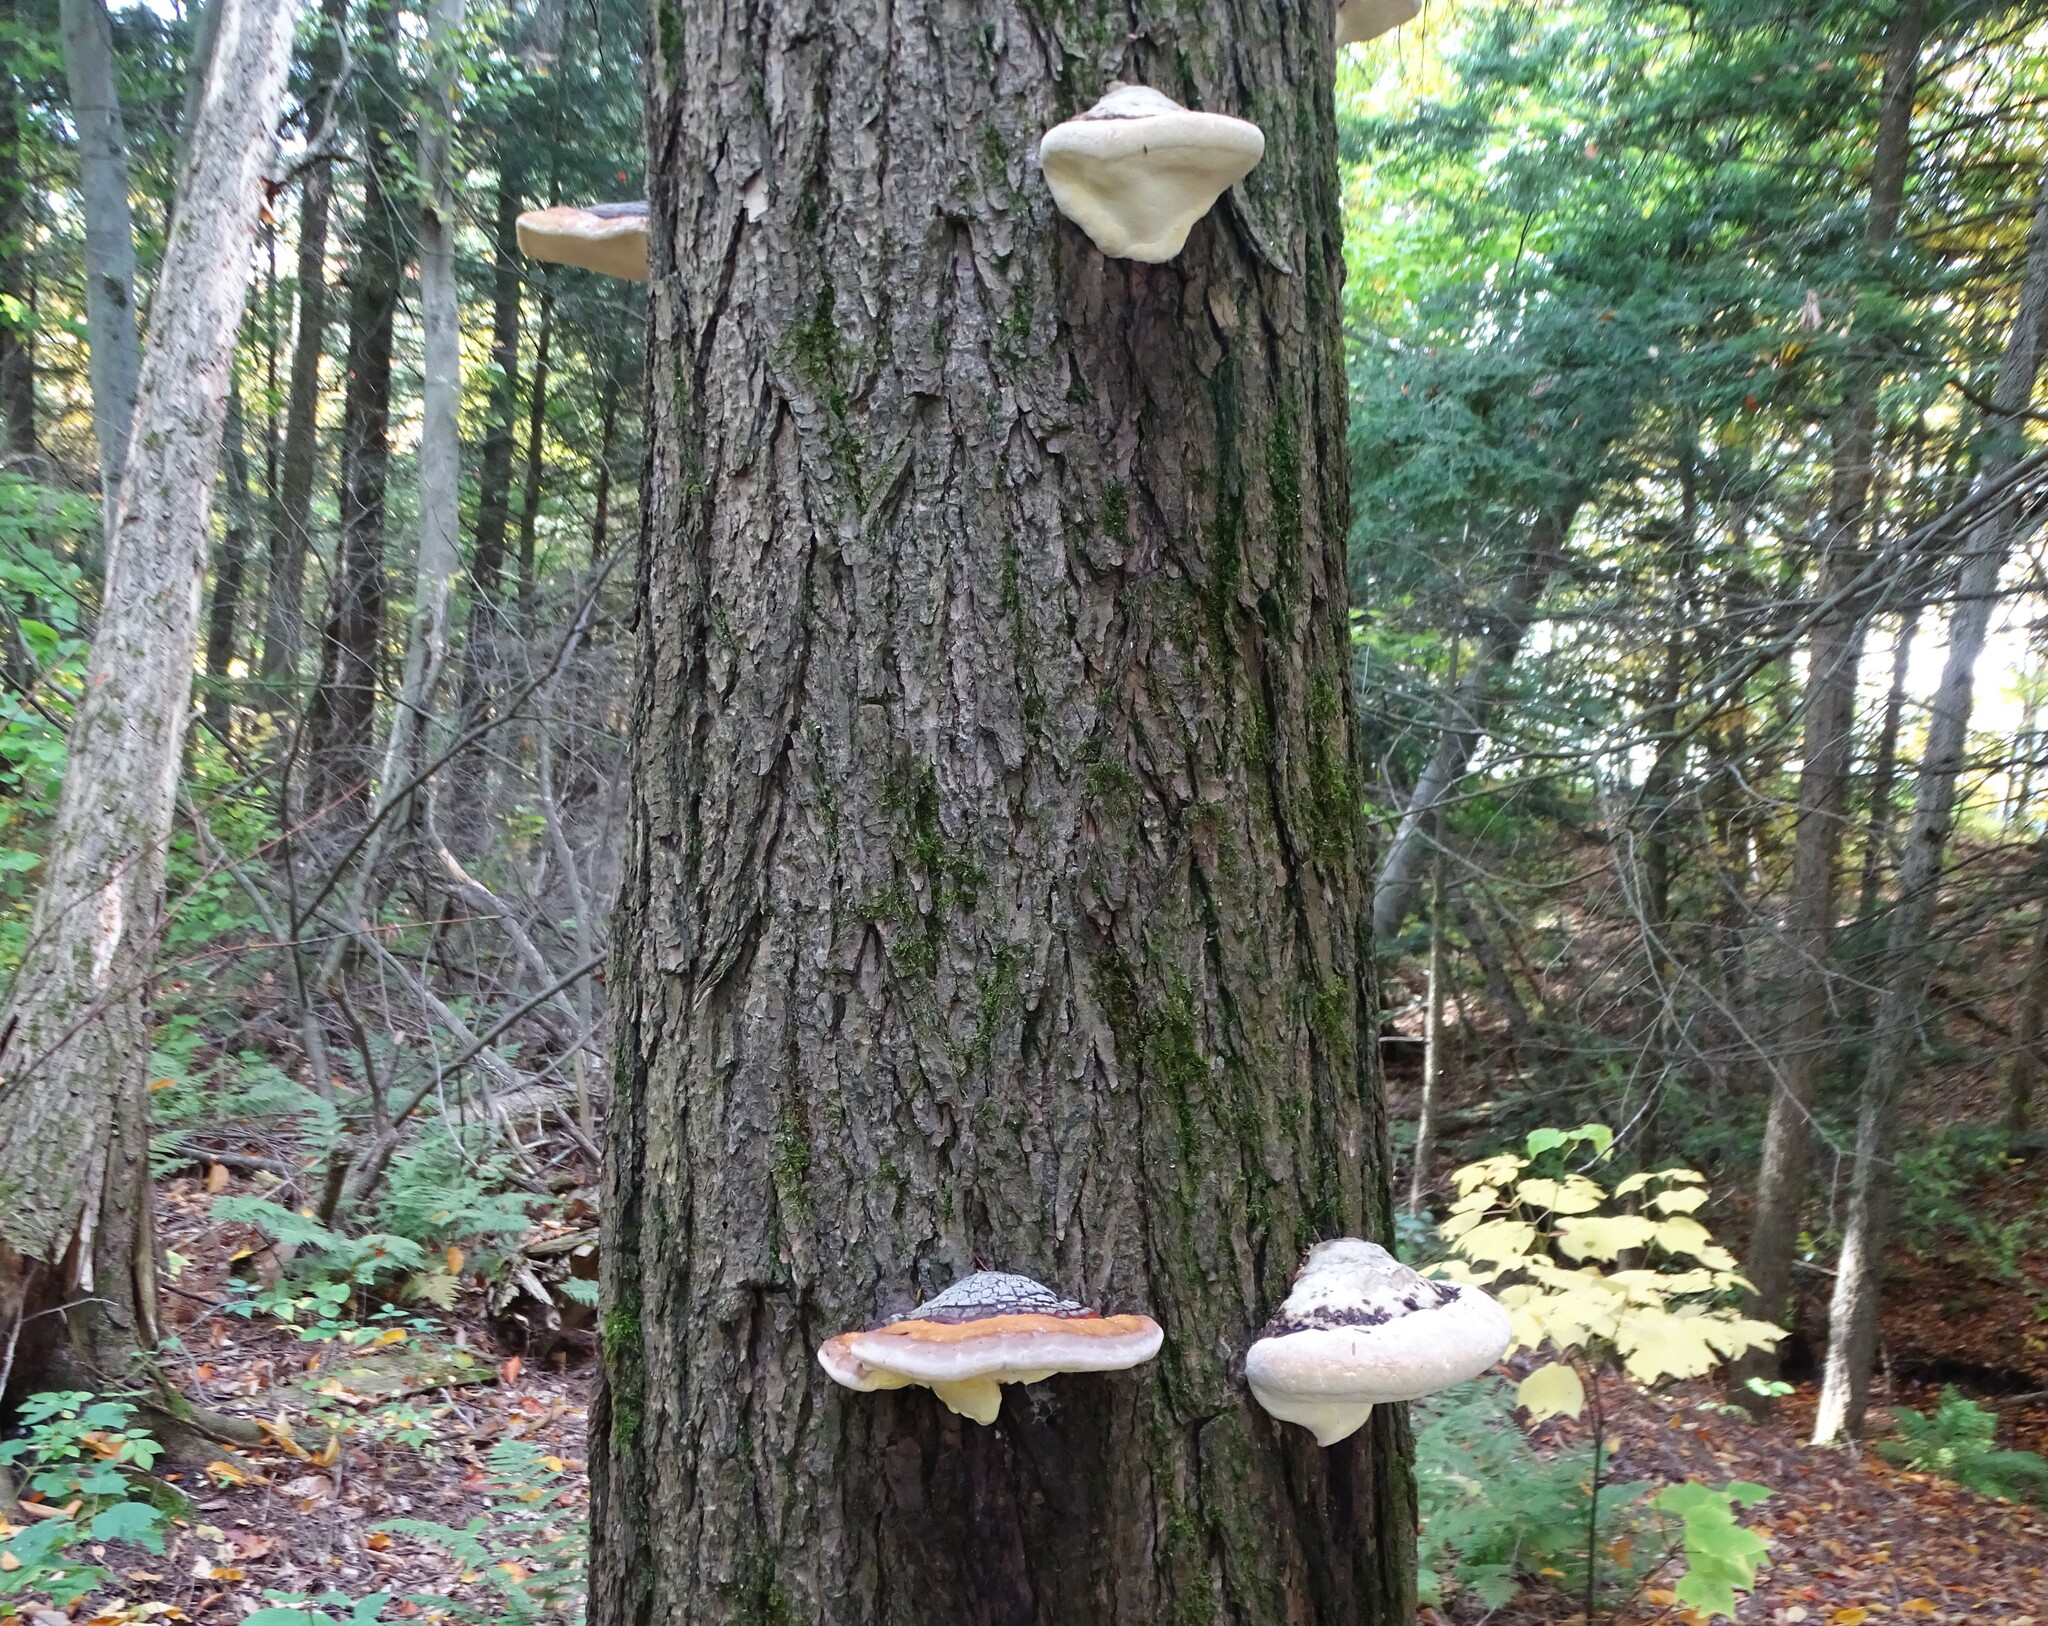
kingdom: Fungi
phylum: Basidiomycota
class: Agaricomycetes
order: Polyporales
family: Fomitopsidaceae
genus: Fomitopsis
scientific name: Fomitopsis mounceae
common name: Northern red belt
